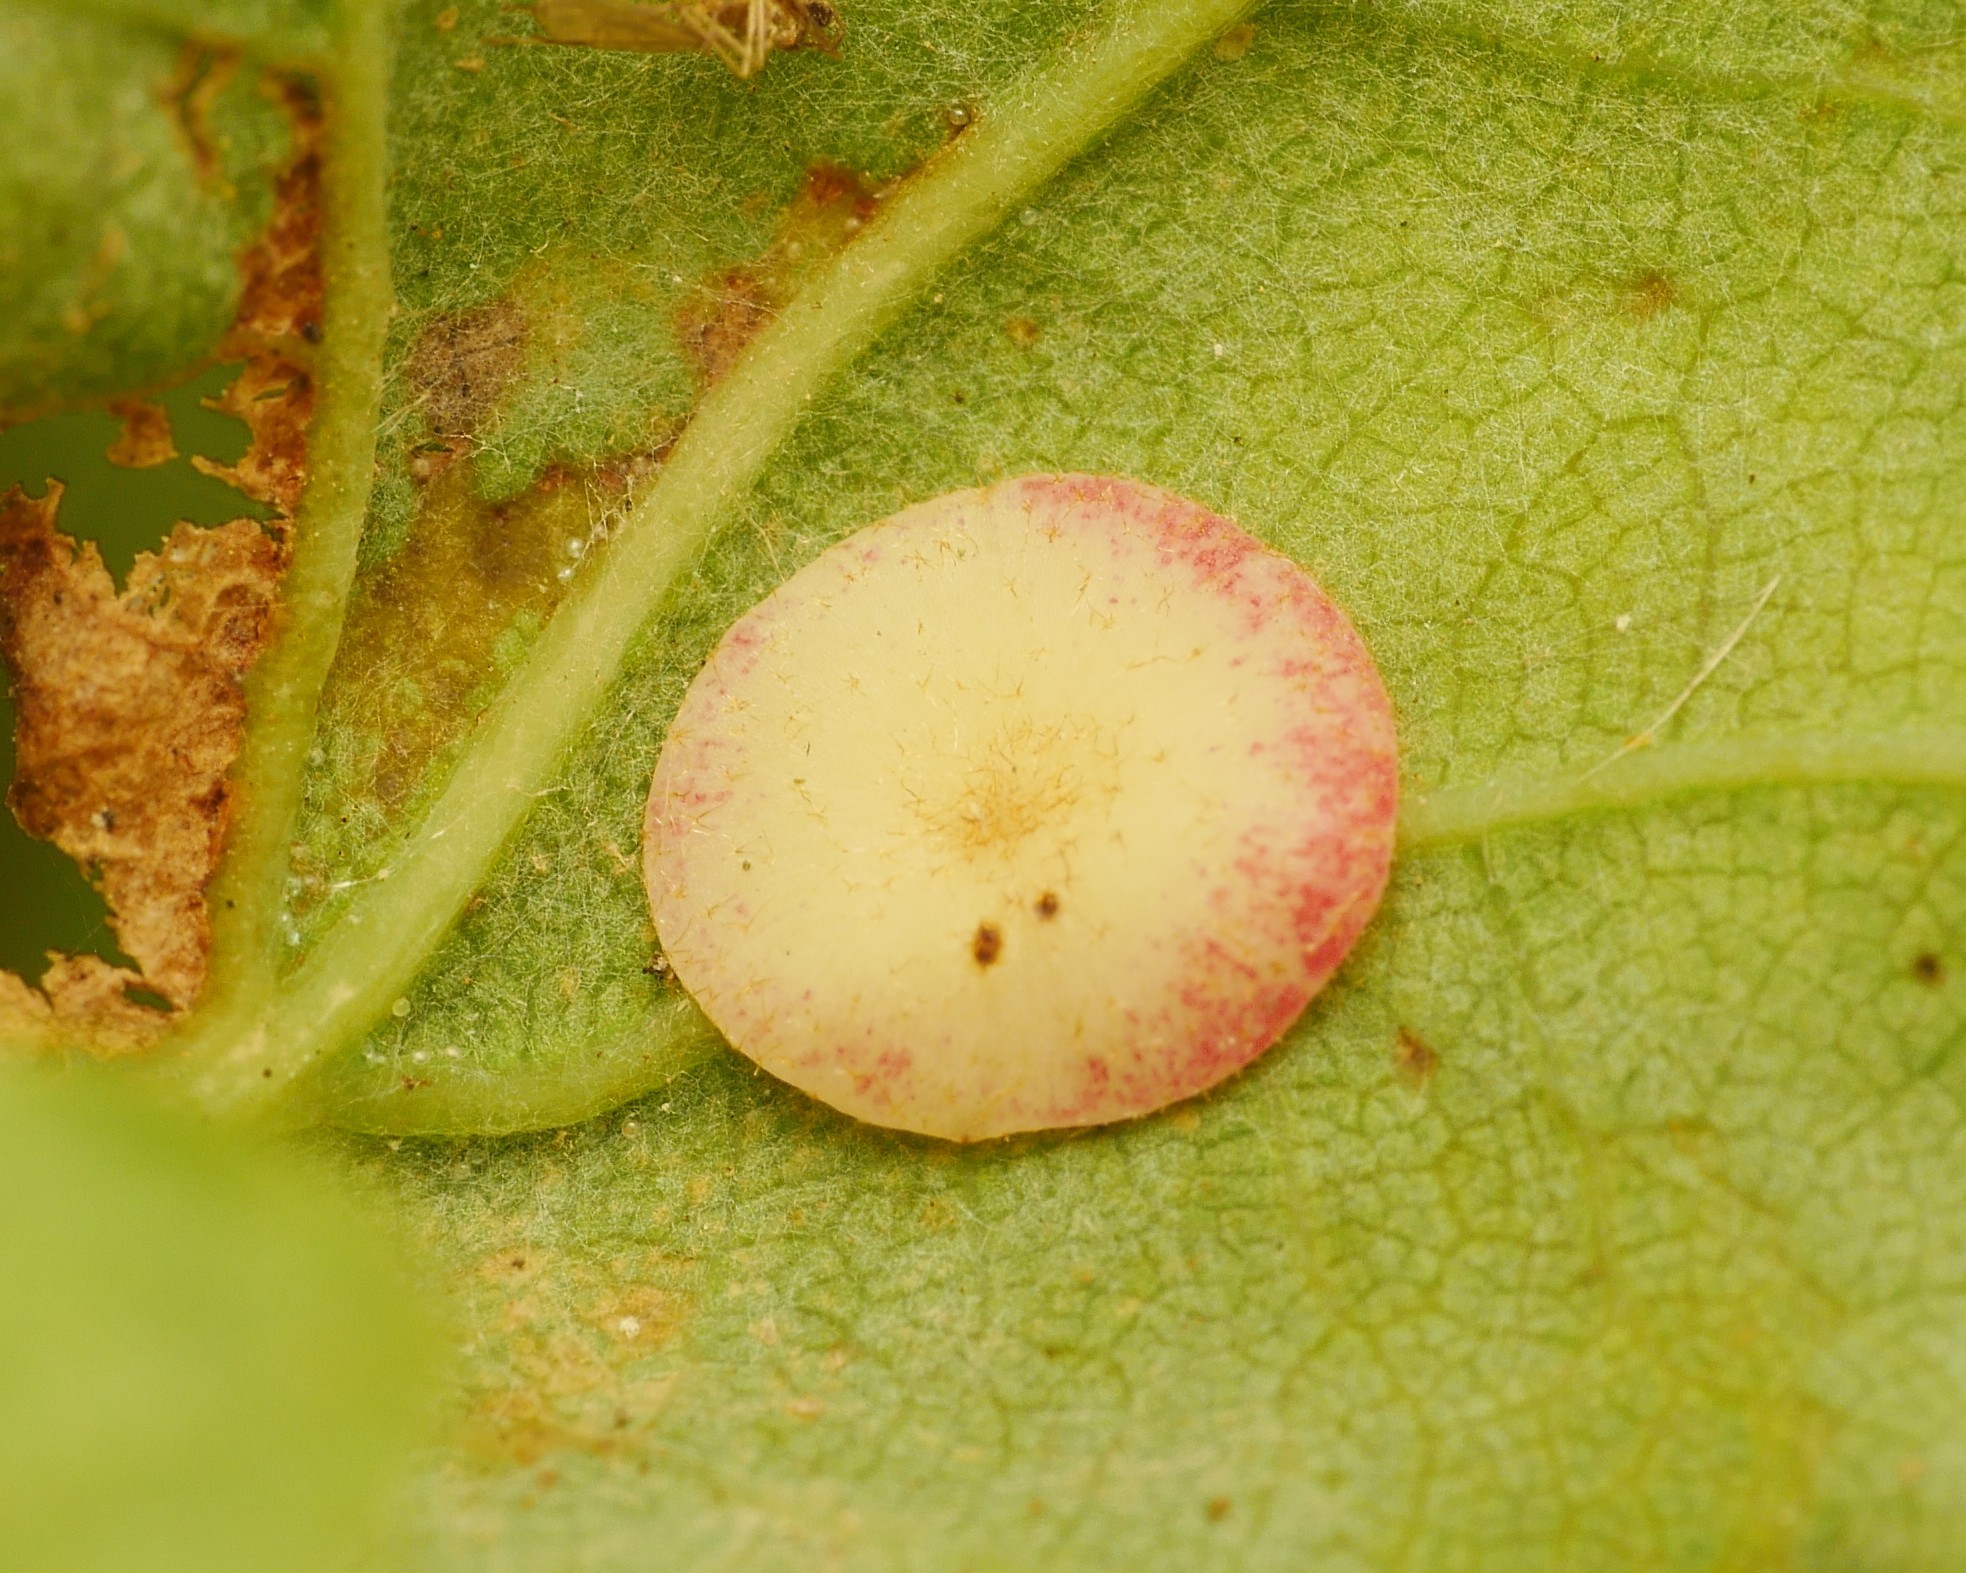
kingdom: Animalia
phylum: Arthropoda
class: Insecta
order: Hymenoptera
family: Cynipidae
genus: Neuroterus
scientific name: Neuroterus quercusbaccarum
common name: Common spangle gall
